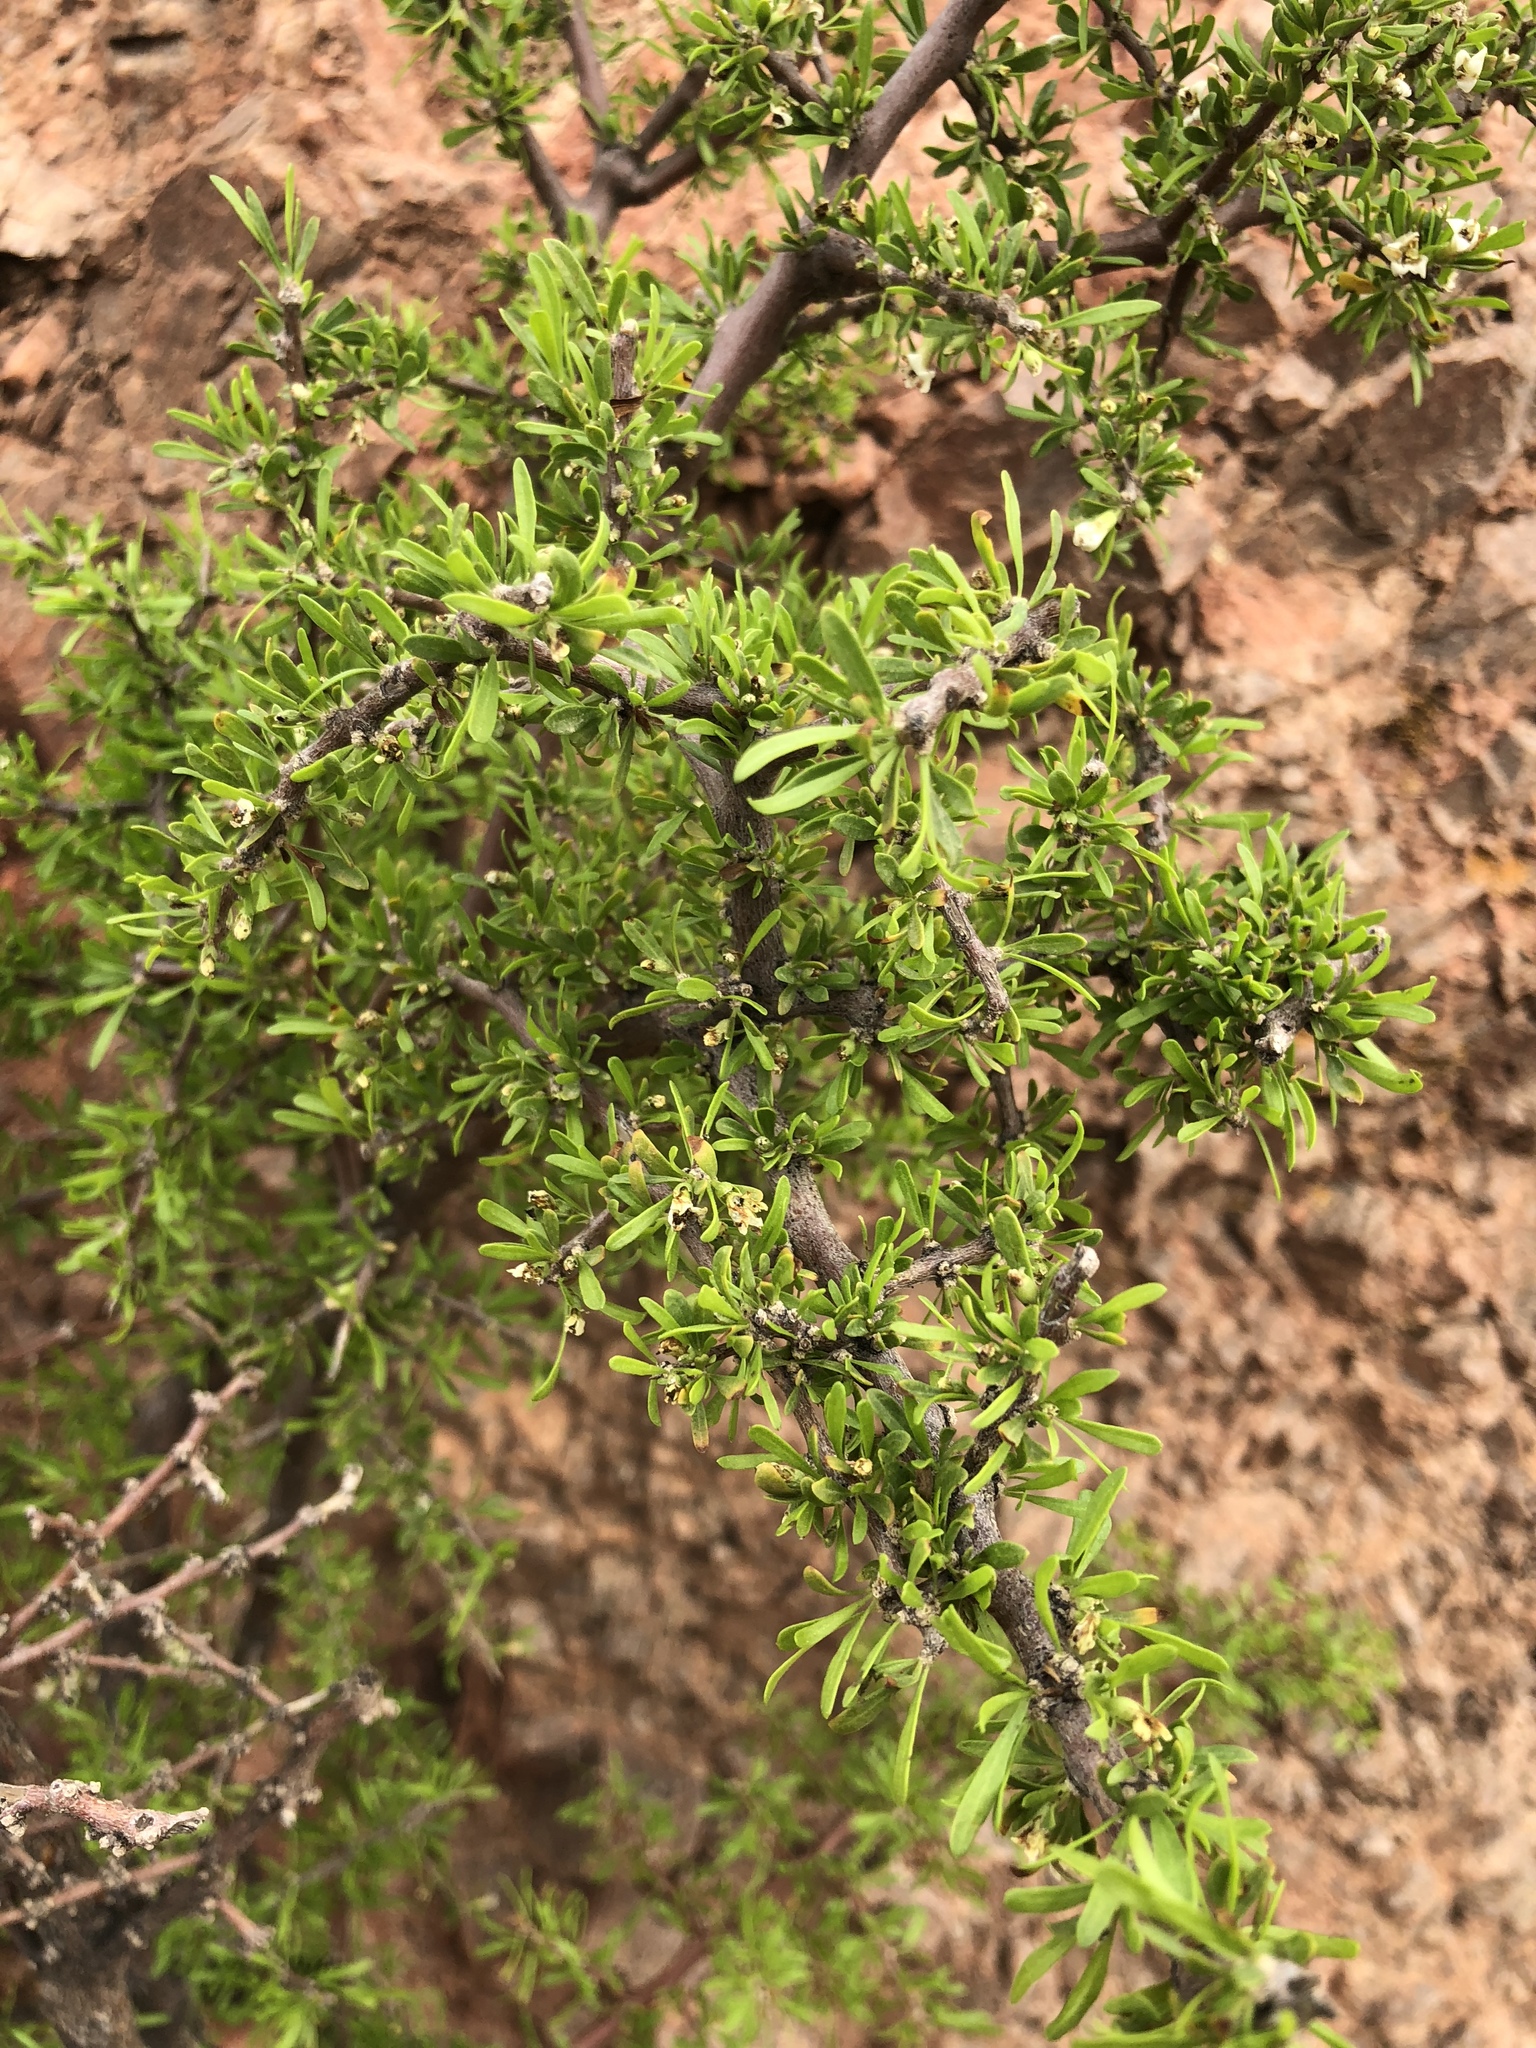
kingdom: Plantae
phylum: Tracheophyta
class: Magnoliopsida
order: Solanales
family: Solanaceae
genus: Lycium
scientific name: Lycium berlandieri
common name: Berlandier wolfberry
